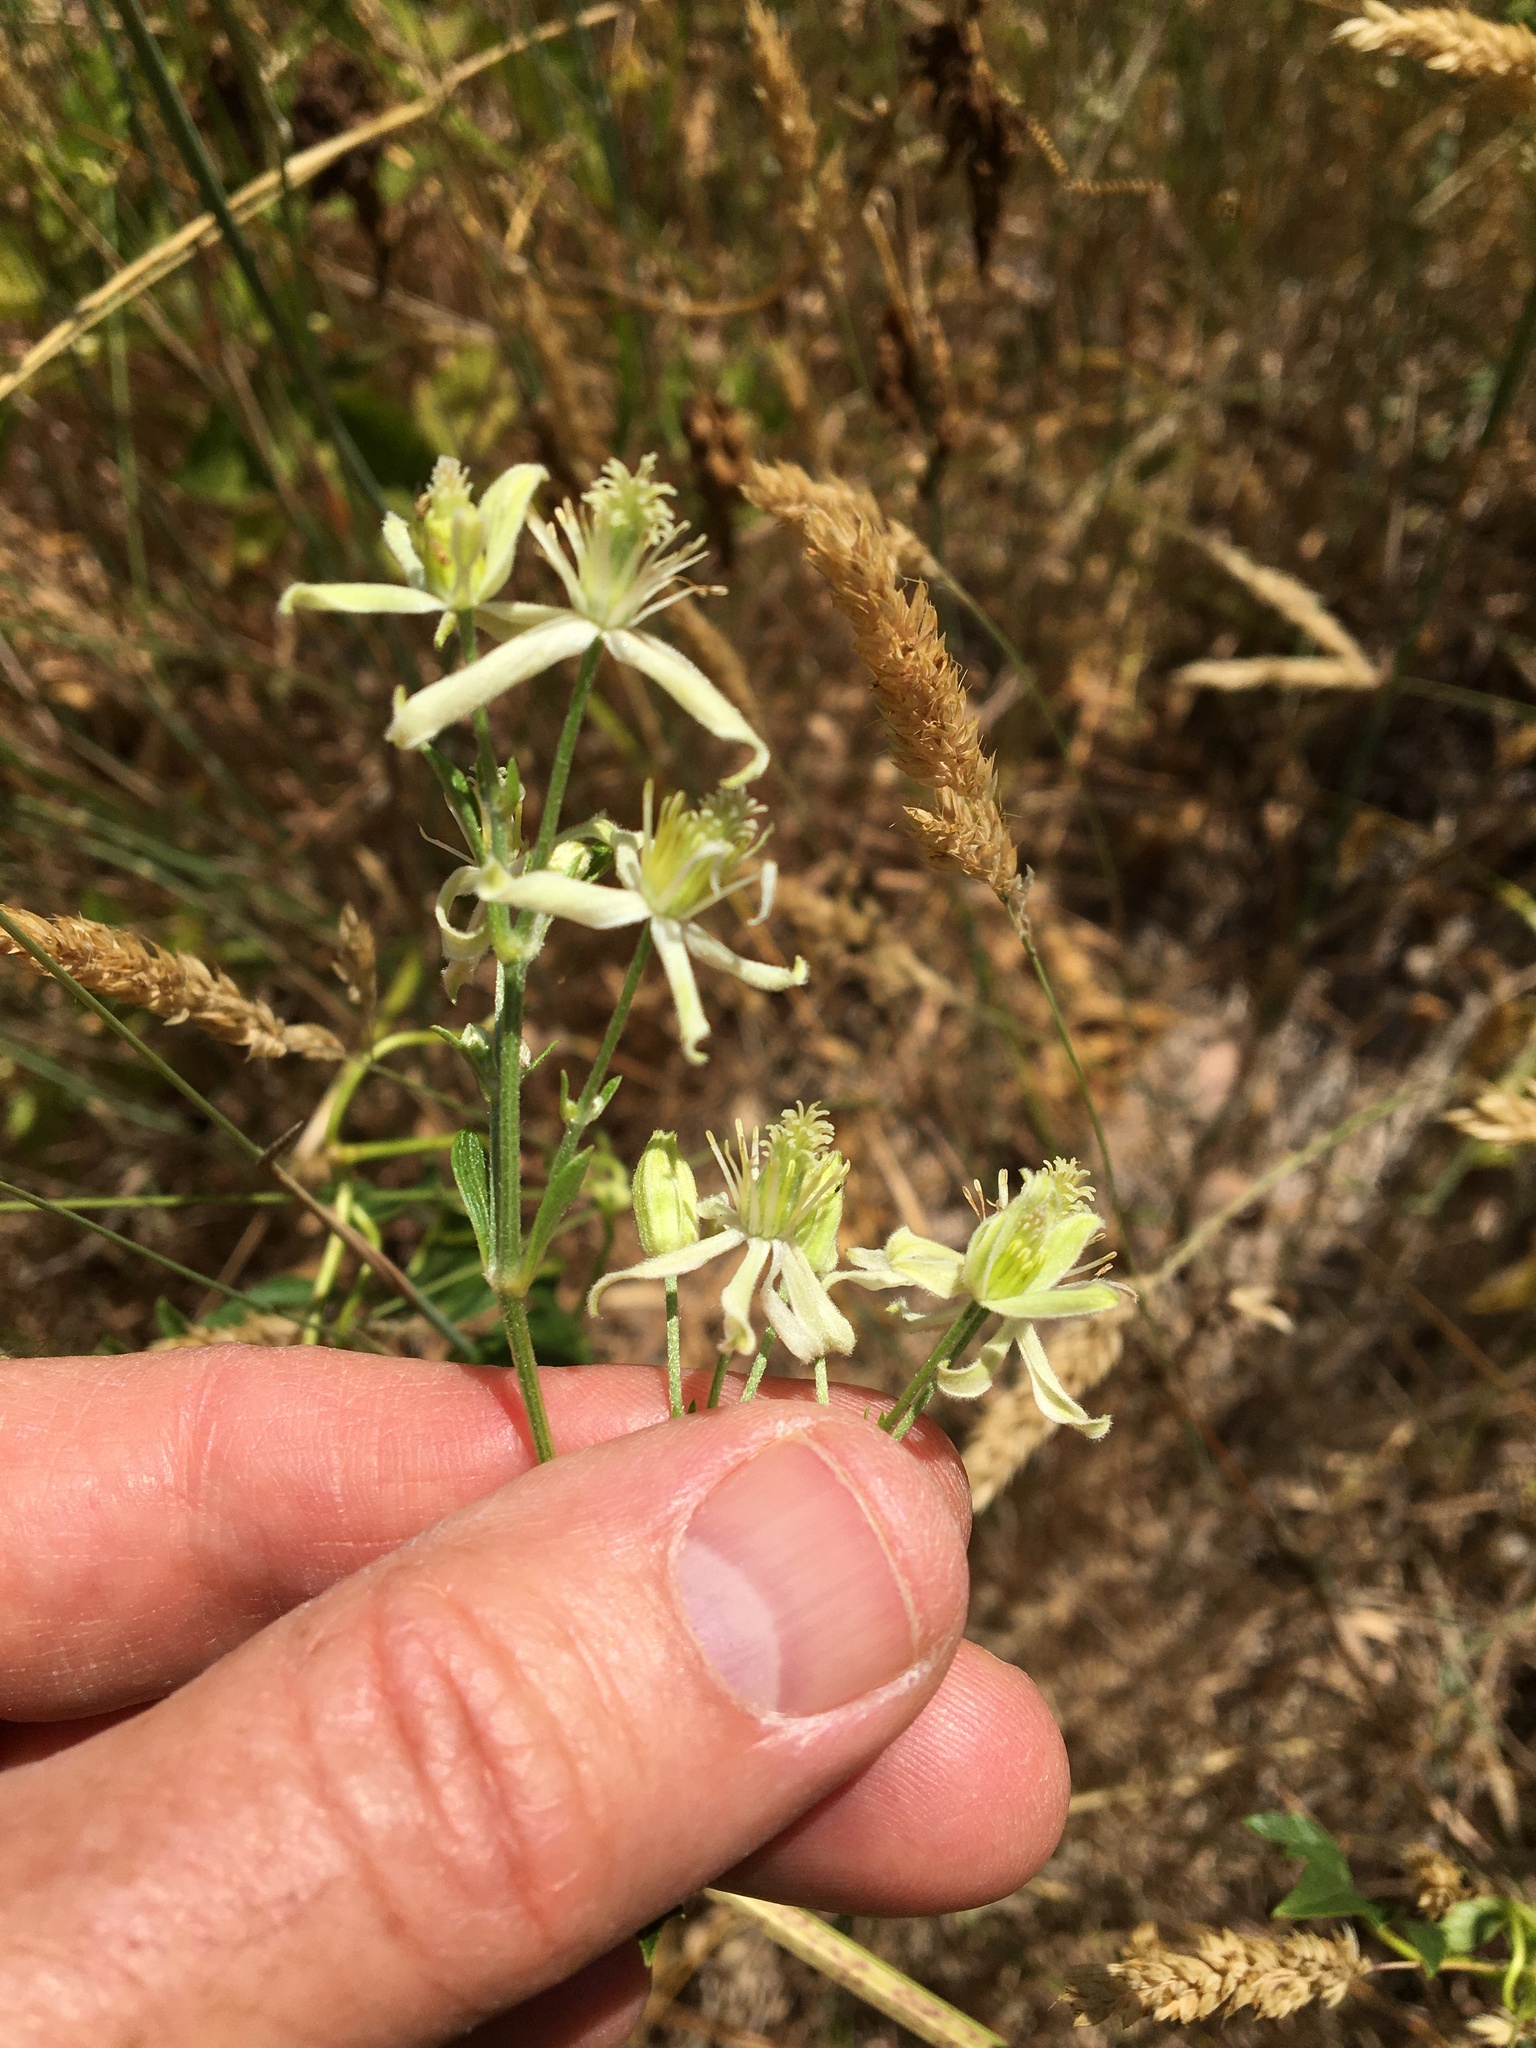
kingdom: Plantae
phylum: Tracheophyta
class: Magnoliopsida
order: Ranunculales
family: Ranunculaceae
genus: Clematis
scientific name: Clematis ligusticifolia
